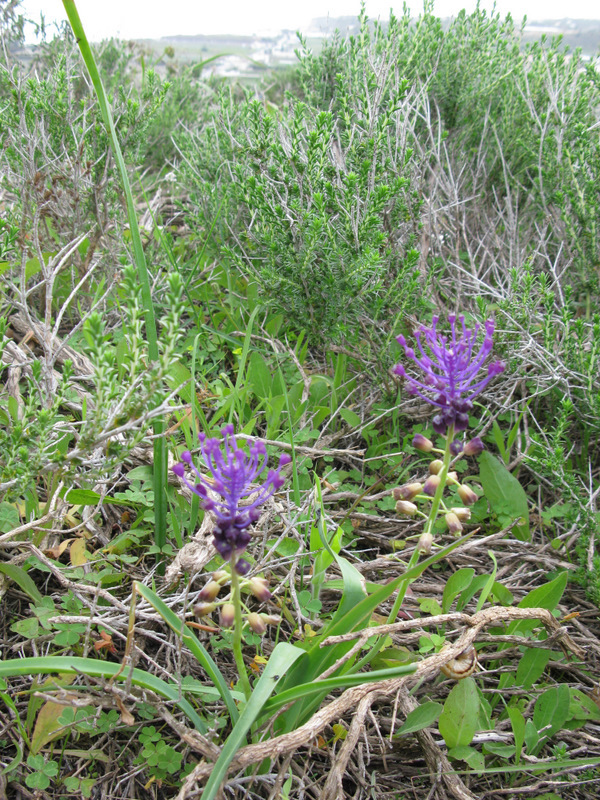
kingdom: Plantae
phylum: Tracheophyta
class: Liliopsida
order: Asparagales
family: Asparagaceae
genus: Muscari
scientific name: Muscari comosum
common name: Tassel hyacinth
